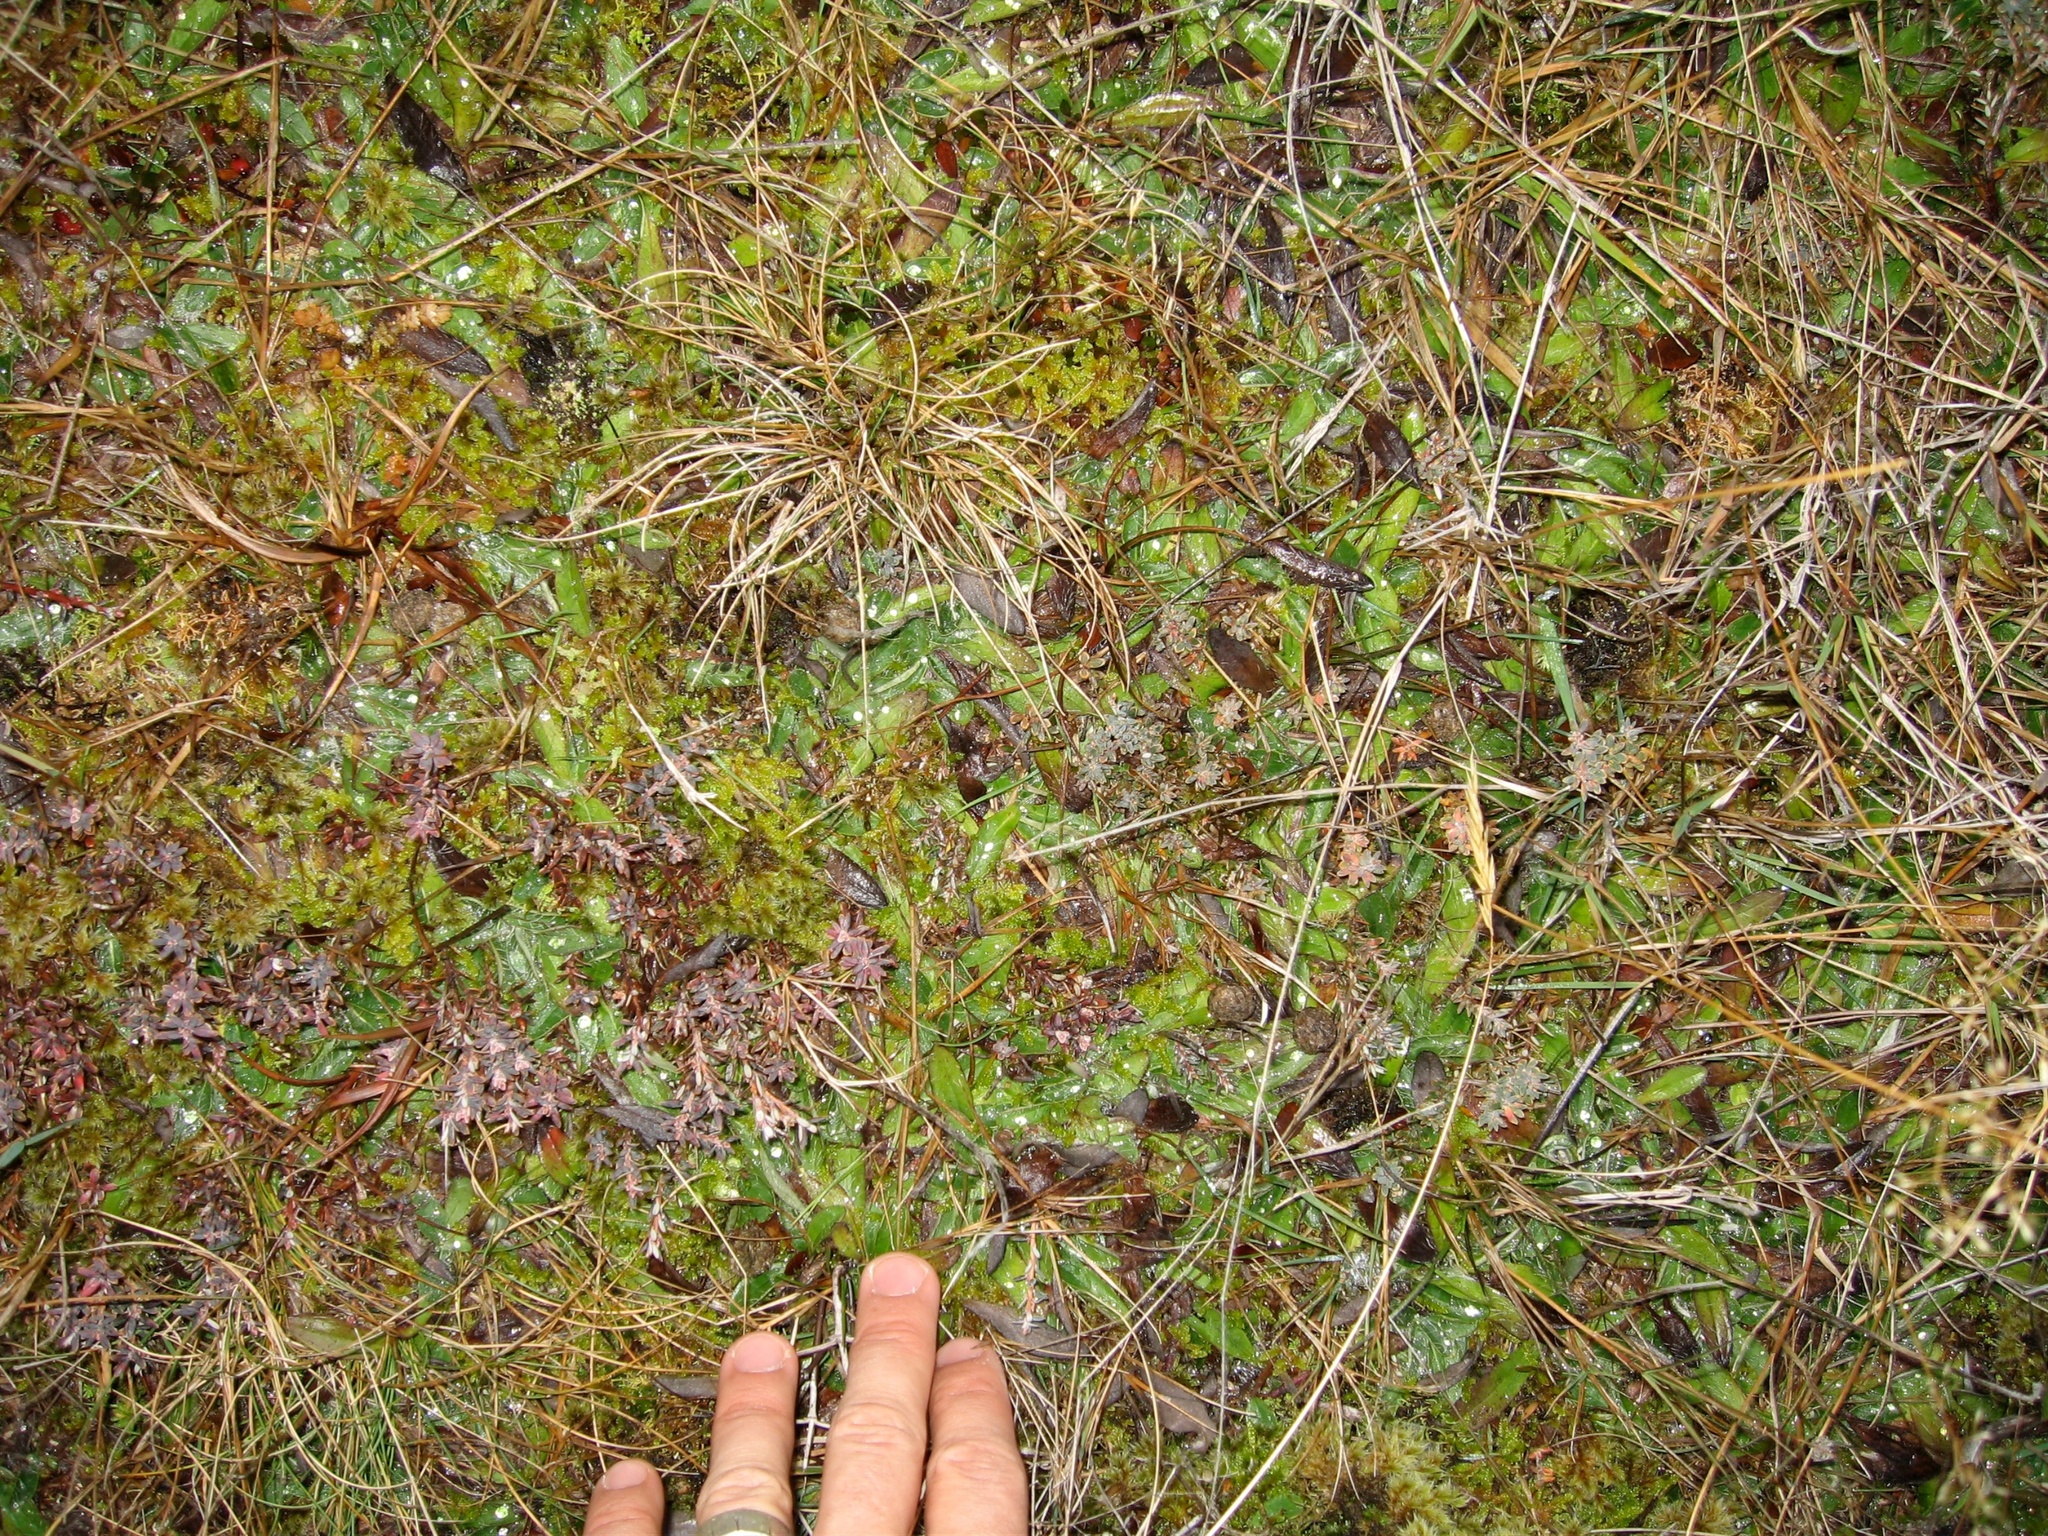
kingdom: Plantae
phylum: Tracheophyta
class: Magnoliopsida
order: Asterales
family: Asteraceae
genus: Pilosella
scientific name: Pilosella officinarum
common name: Mouse-ear hawkweed
